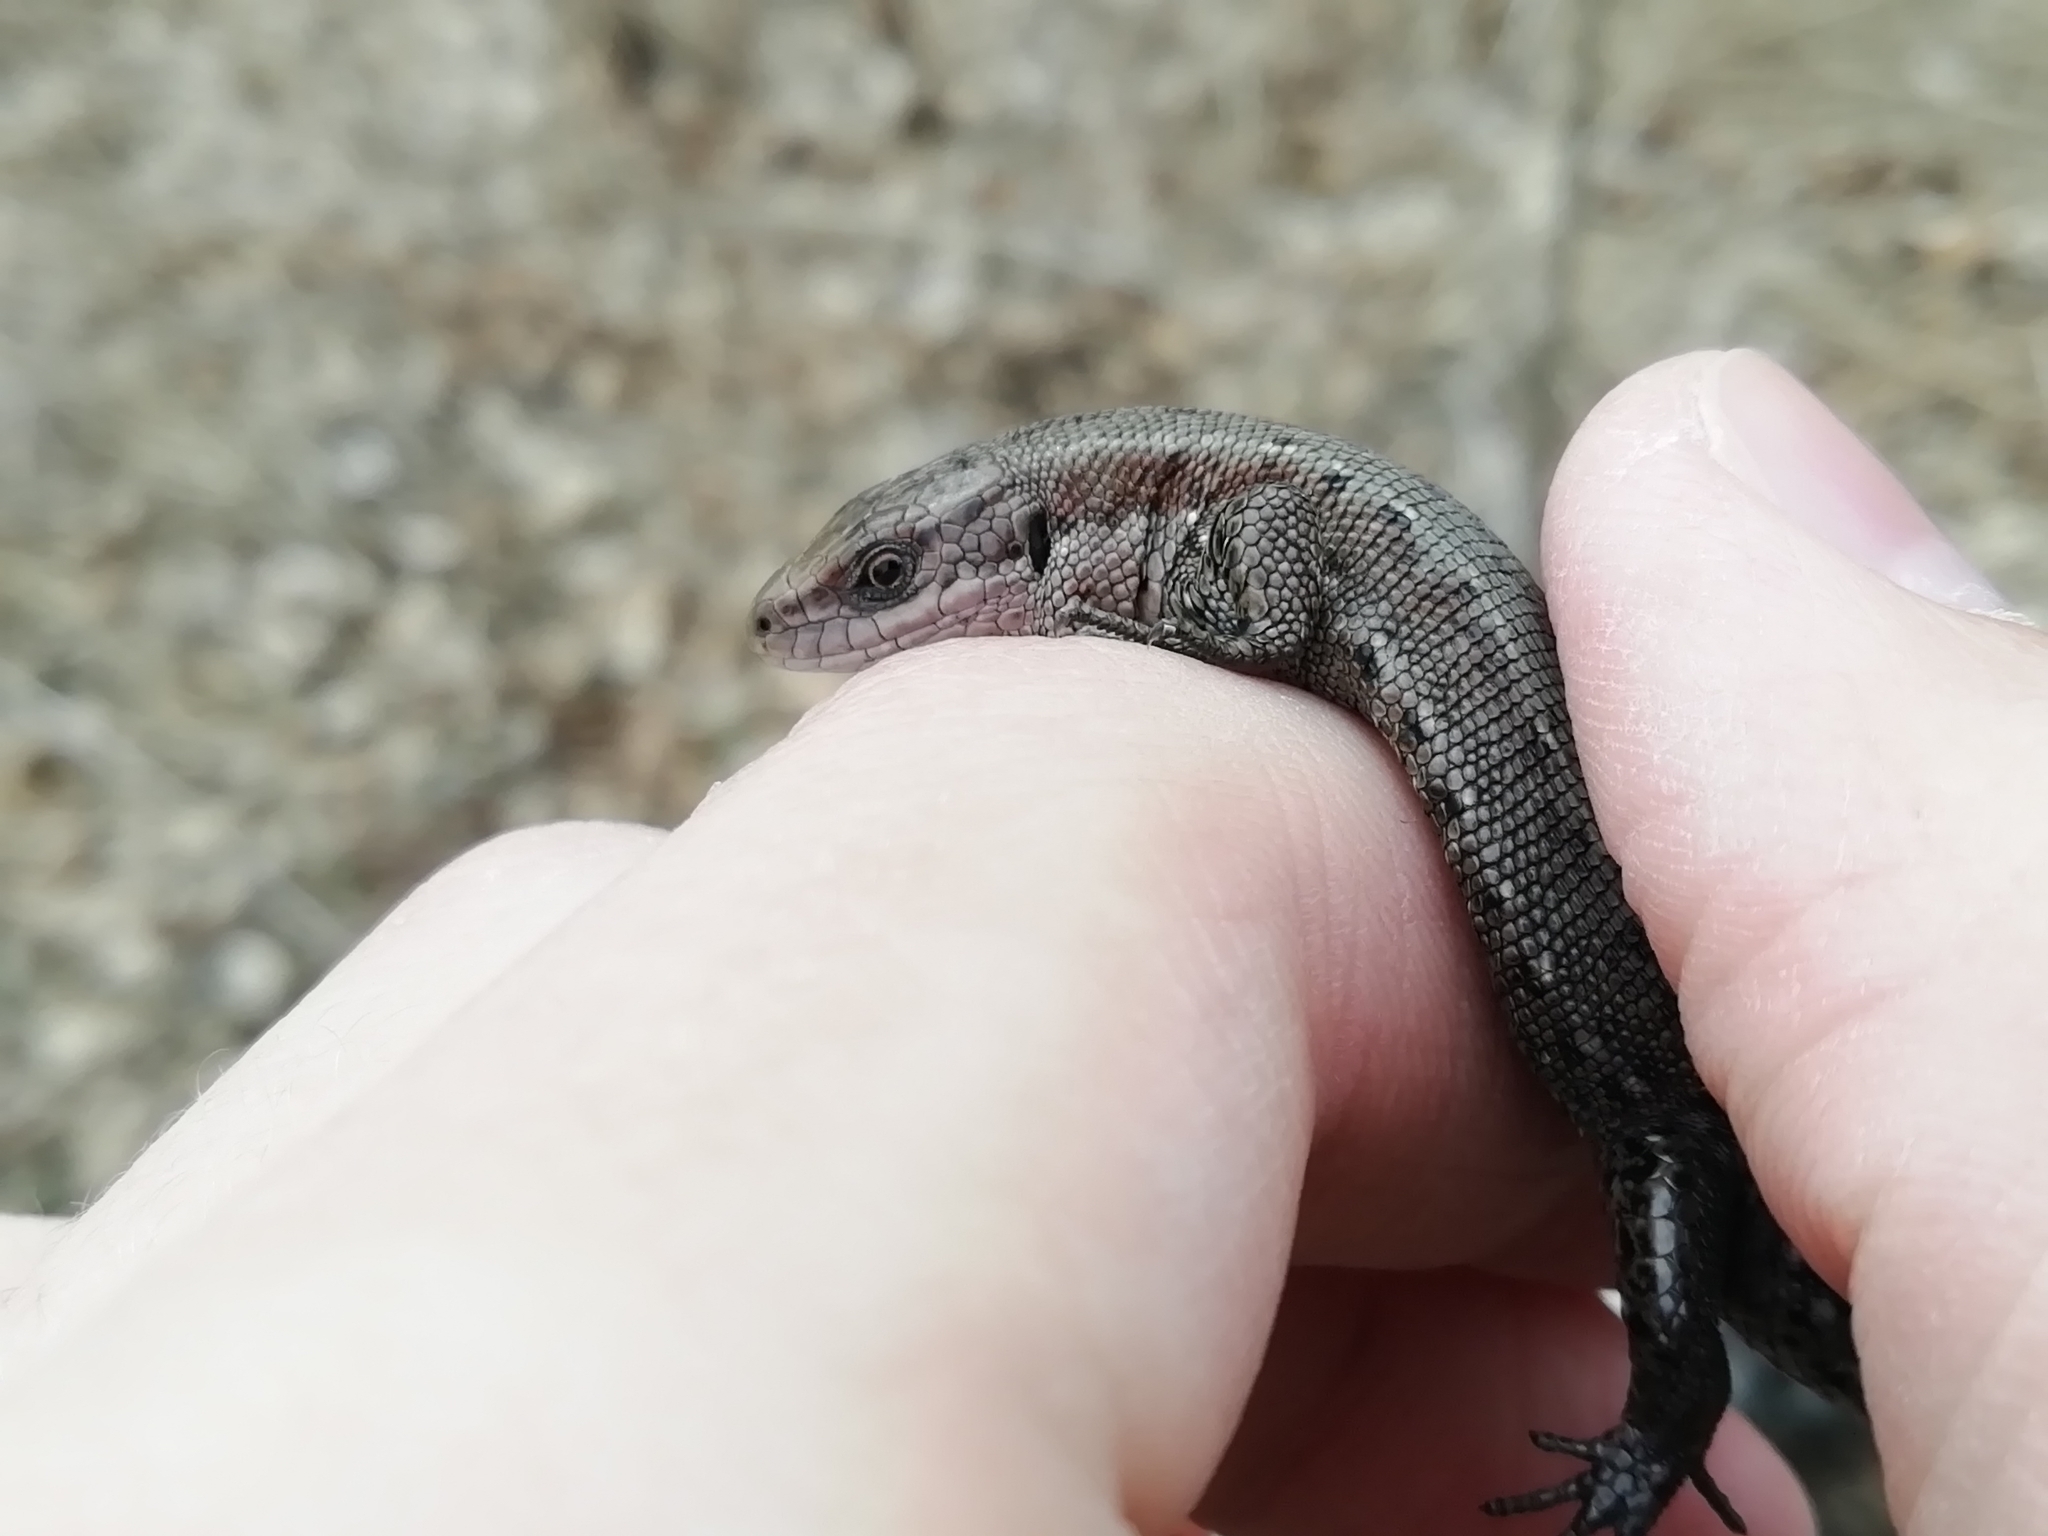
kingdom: Animalia
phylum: Chordata
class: Squamata
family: Lacertidae
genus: Zootoca
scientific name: Zootoca vivipara
